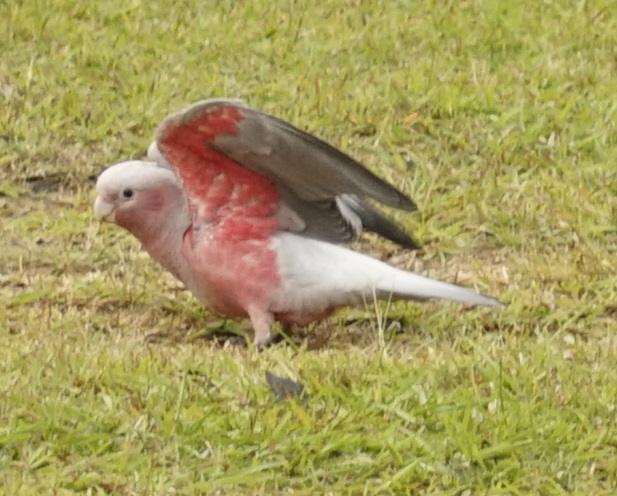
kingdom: Animalia
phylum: Chordata
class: Aves
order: Psittaciformes
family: Psittacidae
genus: Eolophus
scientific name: Eolophus roseicapilla
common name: Galah
